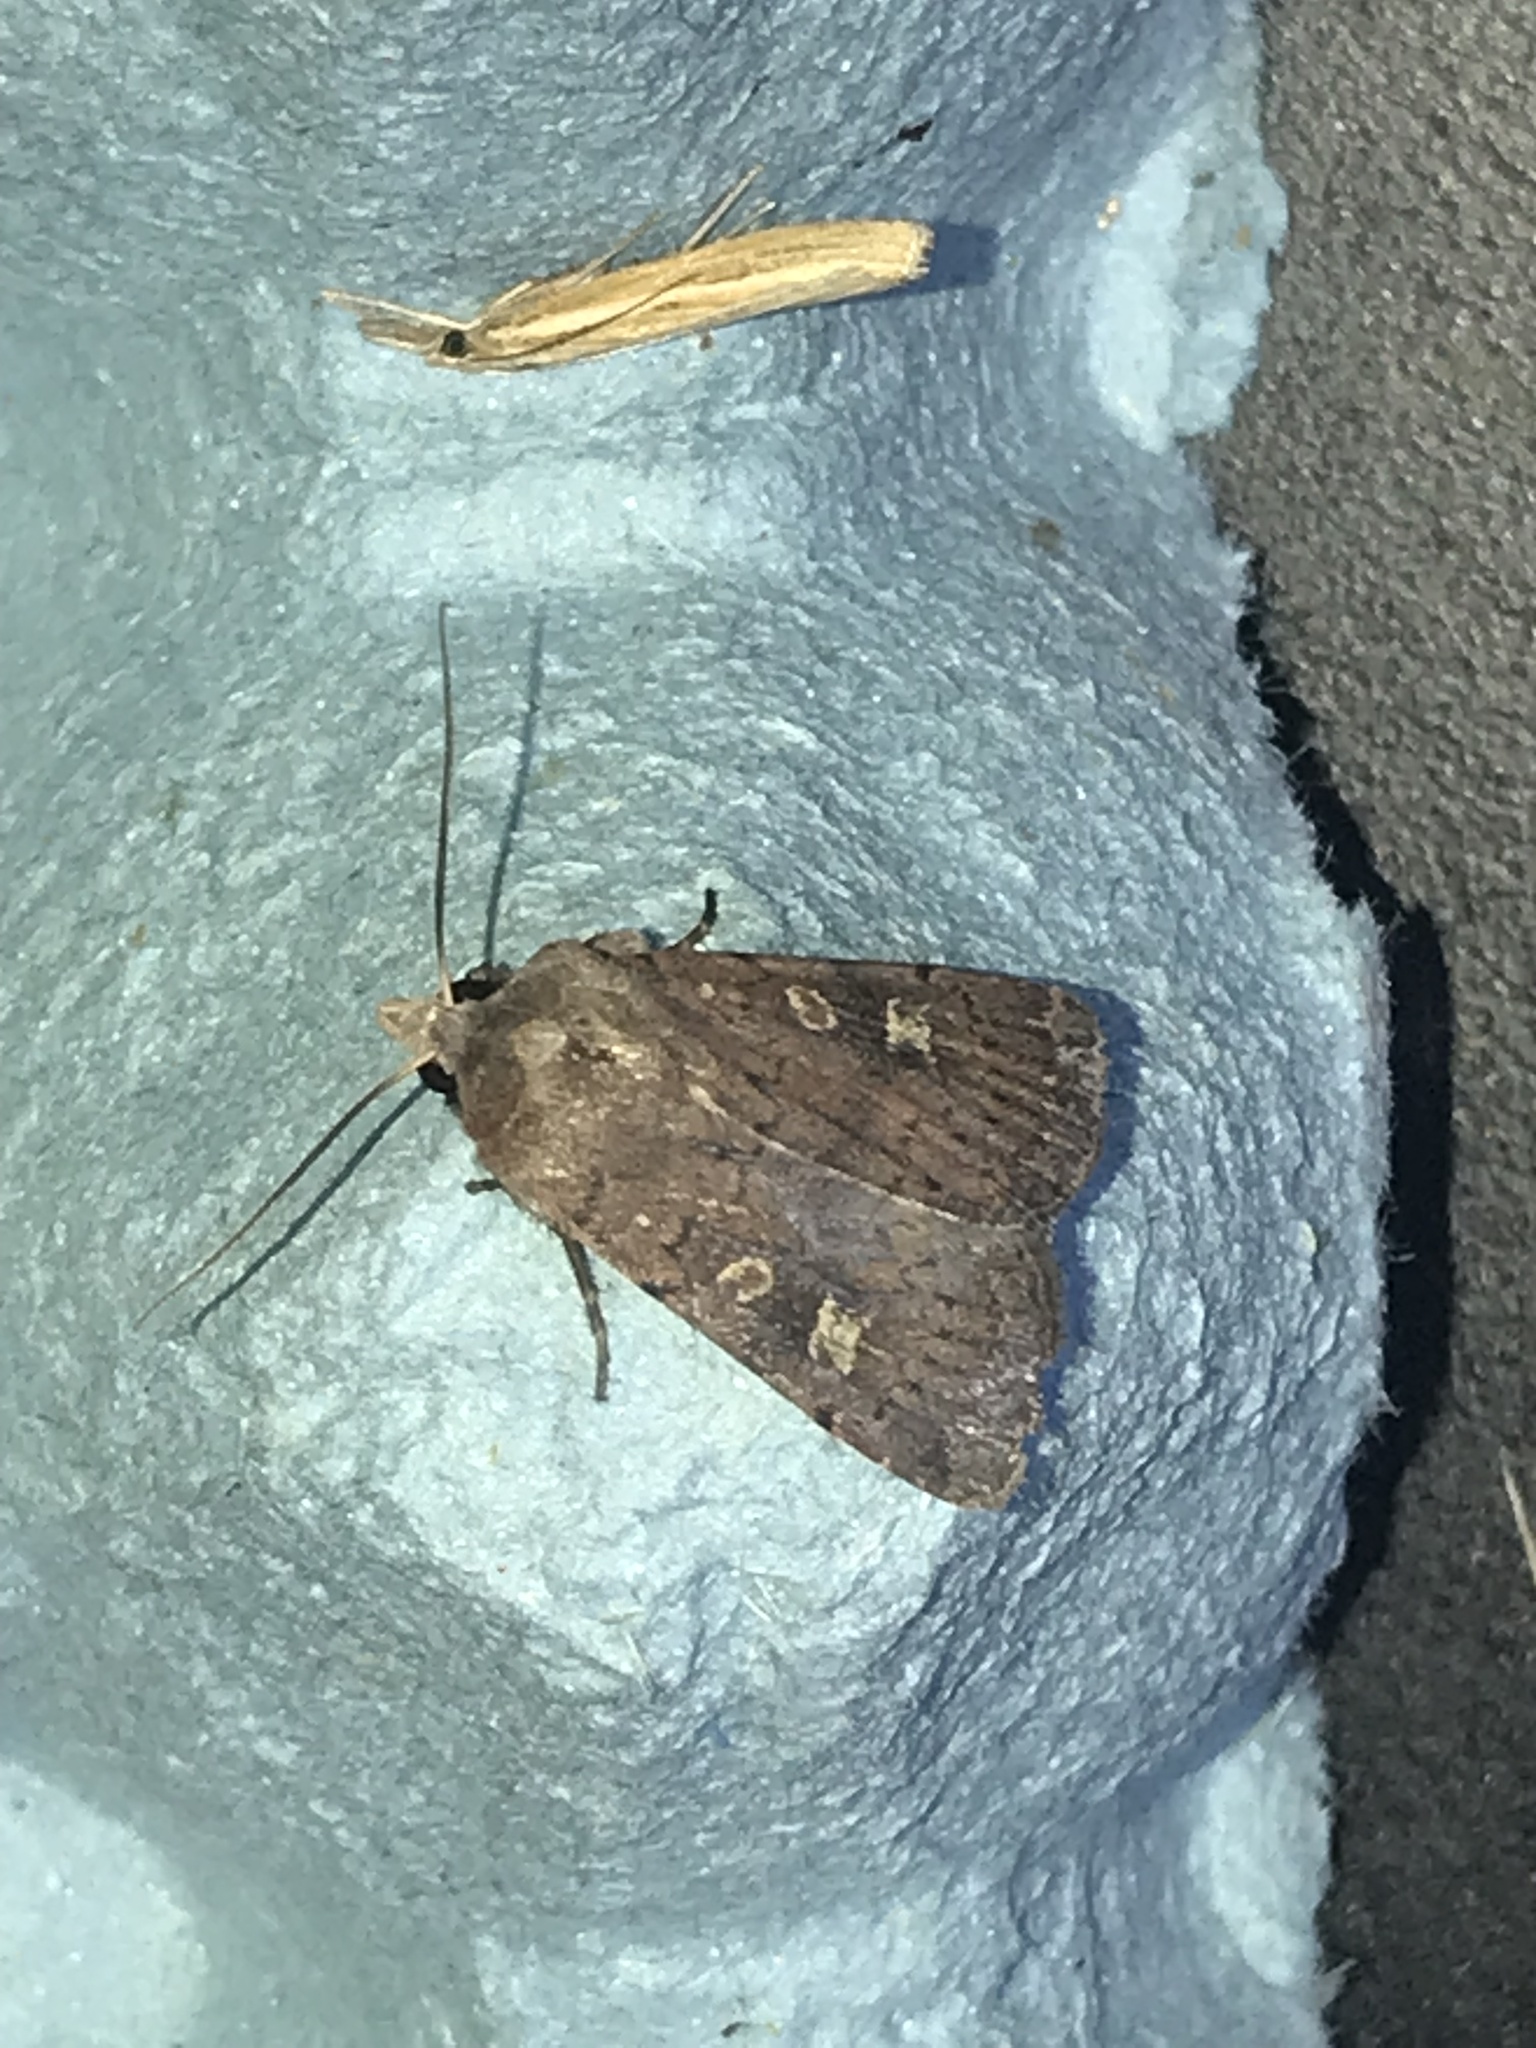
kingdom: Animalia
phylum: Arthropoda
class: Insecta
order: Lepidoptera
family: Noctuidae
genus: Xestia
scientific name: Xestia xanthographa
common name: Square-spot rustic
